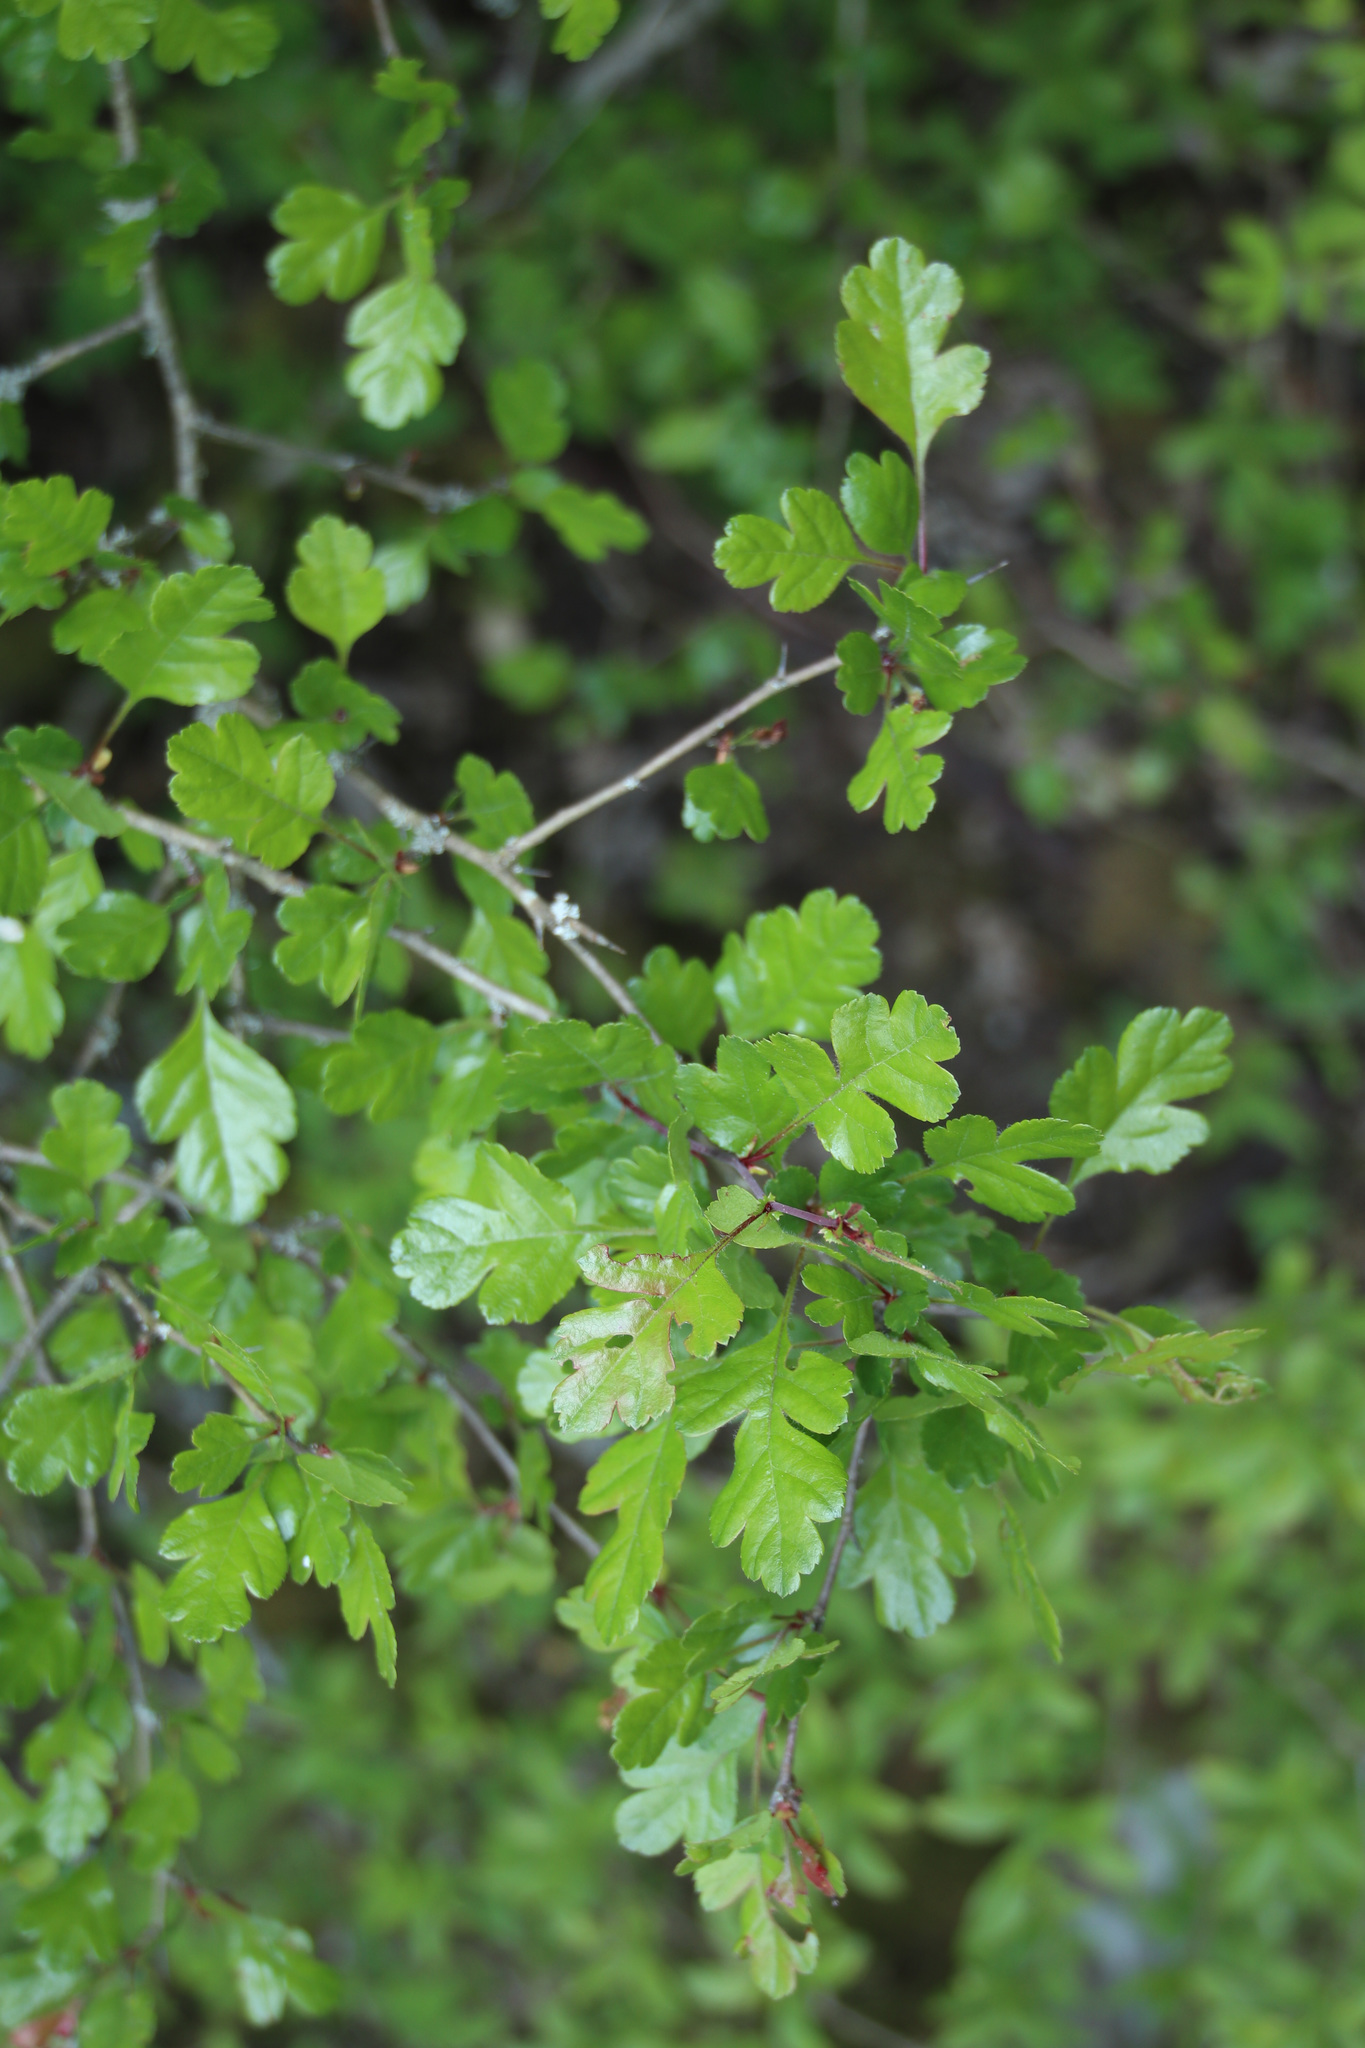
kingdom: Plantae
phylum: Tracheophyta
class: Magnoliopsida
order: Rosales
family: Rosaceae
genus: Crataegus
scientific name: Crataegus monogyna
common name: Hawthorn
